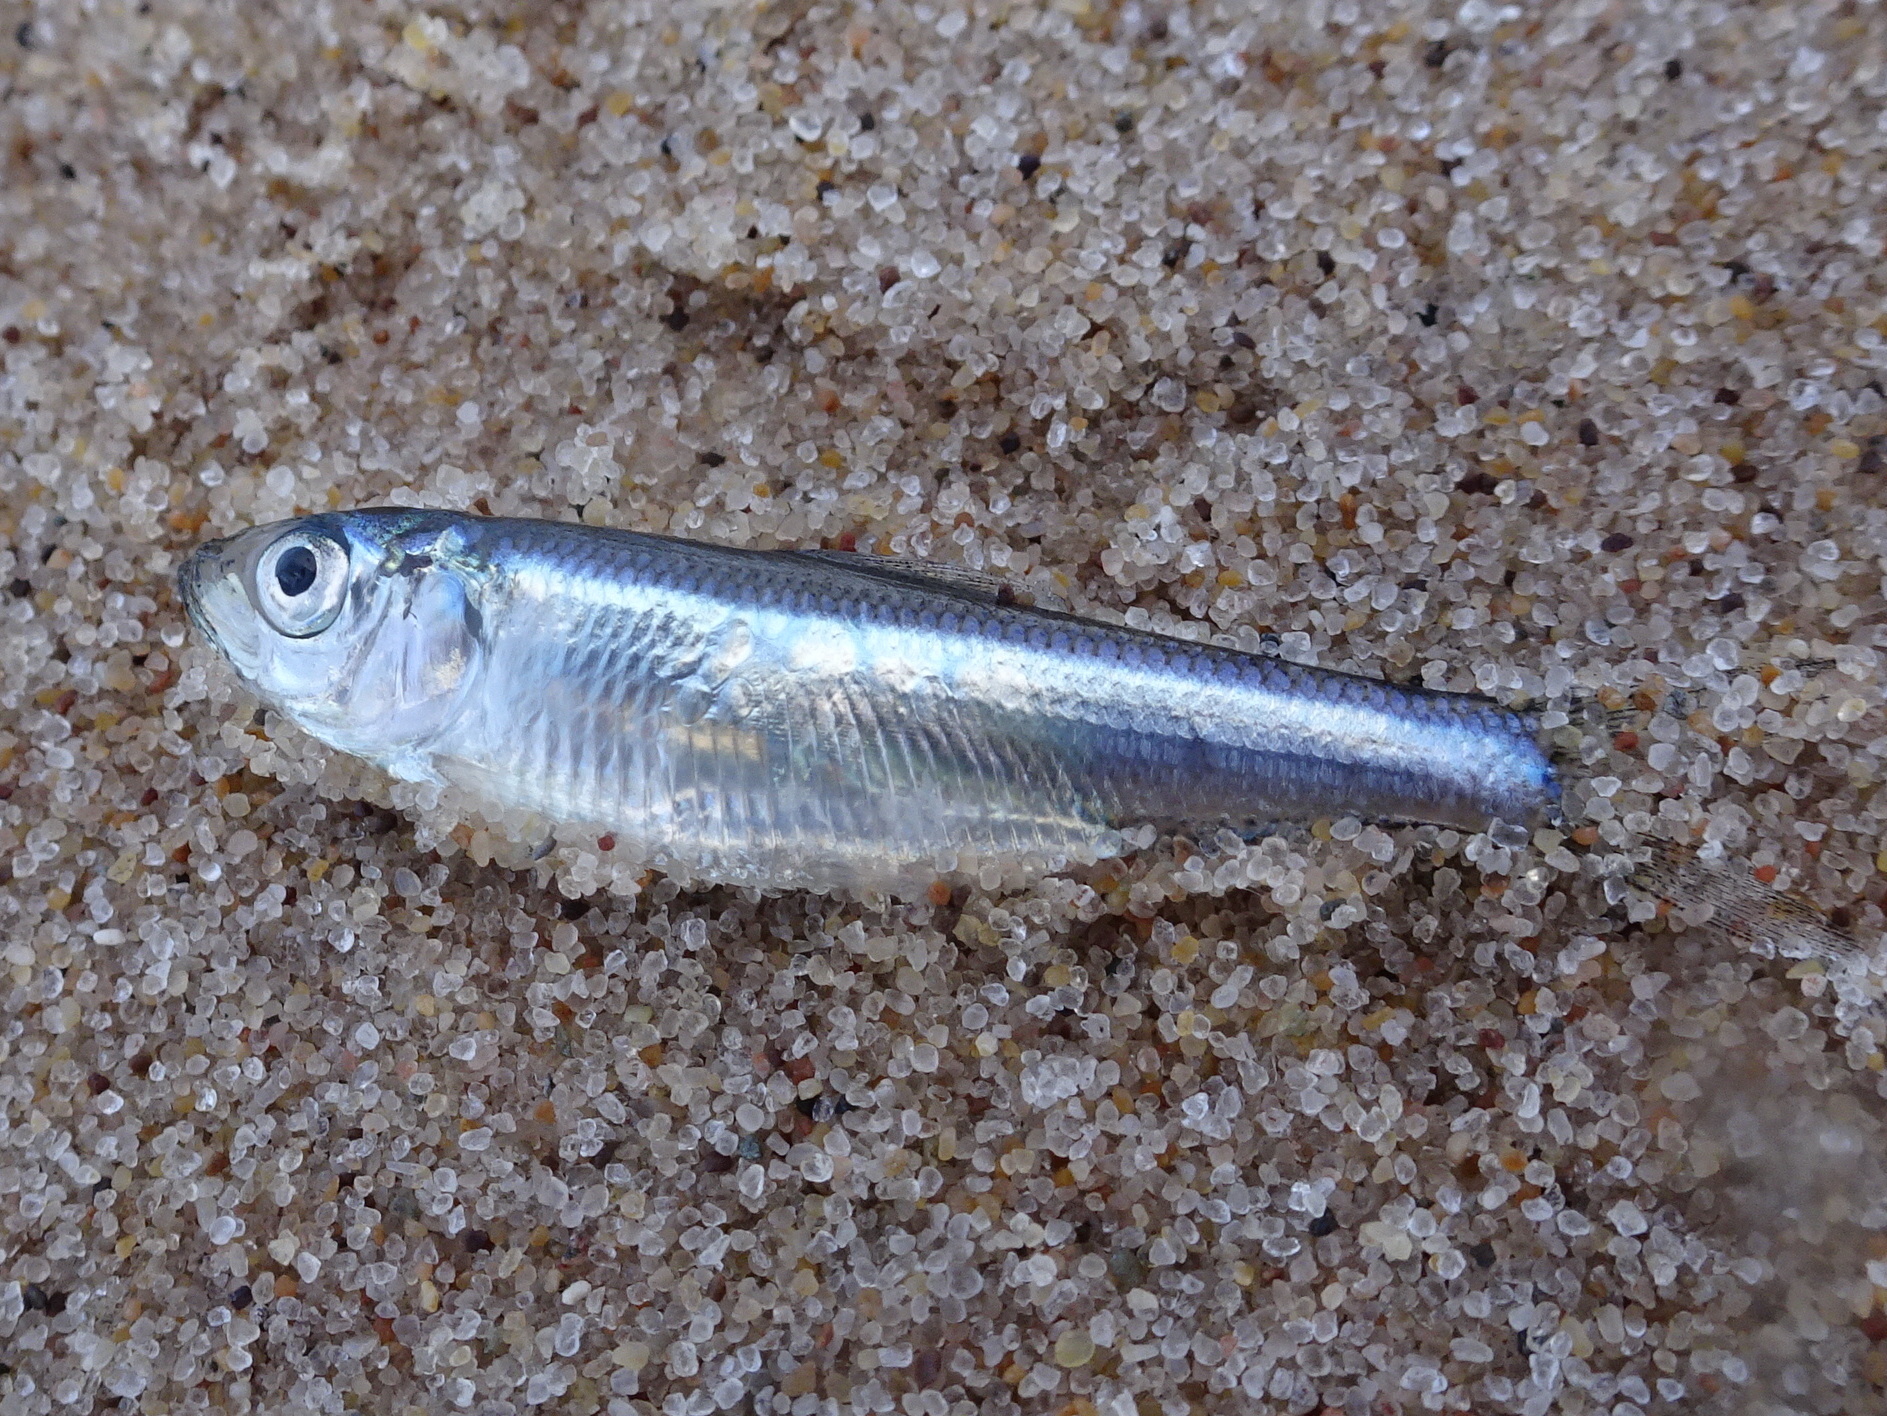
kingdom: Animalia
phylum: Chordata
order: Clupeiformes
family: Clupeidae
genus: Alosa
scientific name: Alosa pseudoharengus
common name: Alewife
